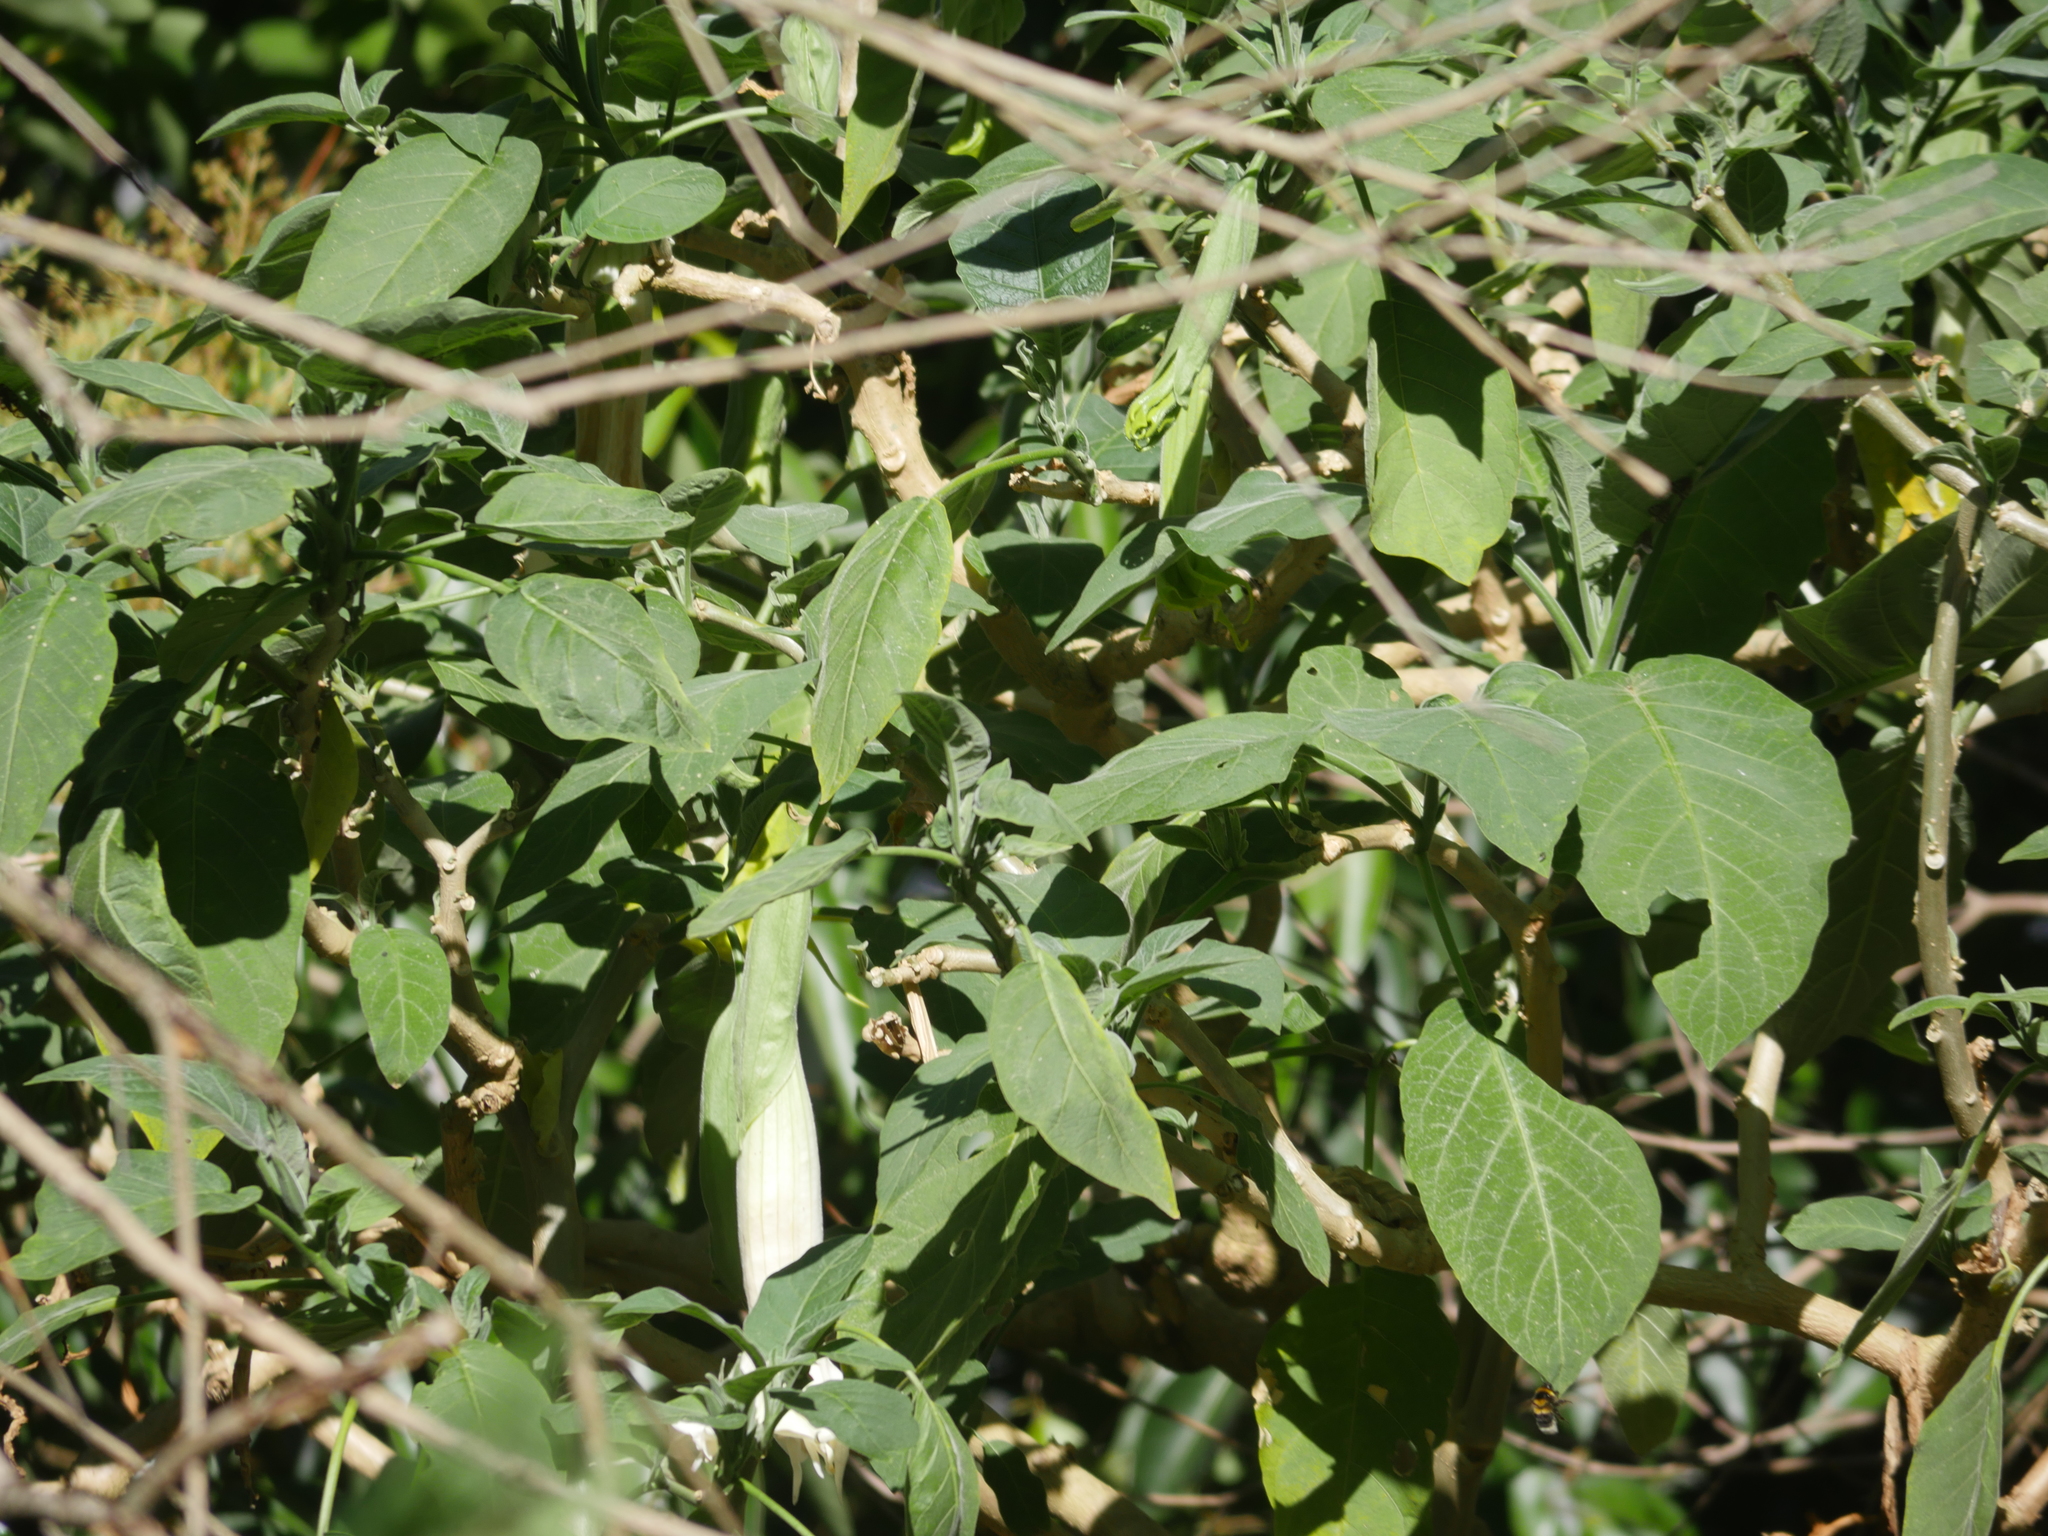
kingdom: Plantae
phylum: Tracheophyta
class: Magnoliopsida
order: Solanales
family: Solanaceae
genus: Brugmansia
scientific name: Brugmansia candida
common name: Angel's-trumpet
